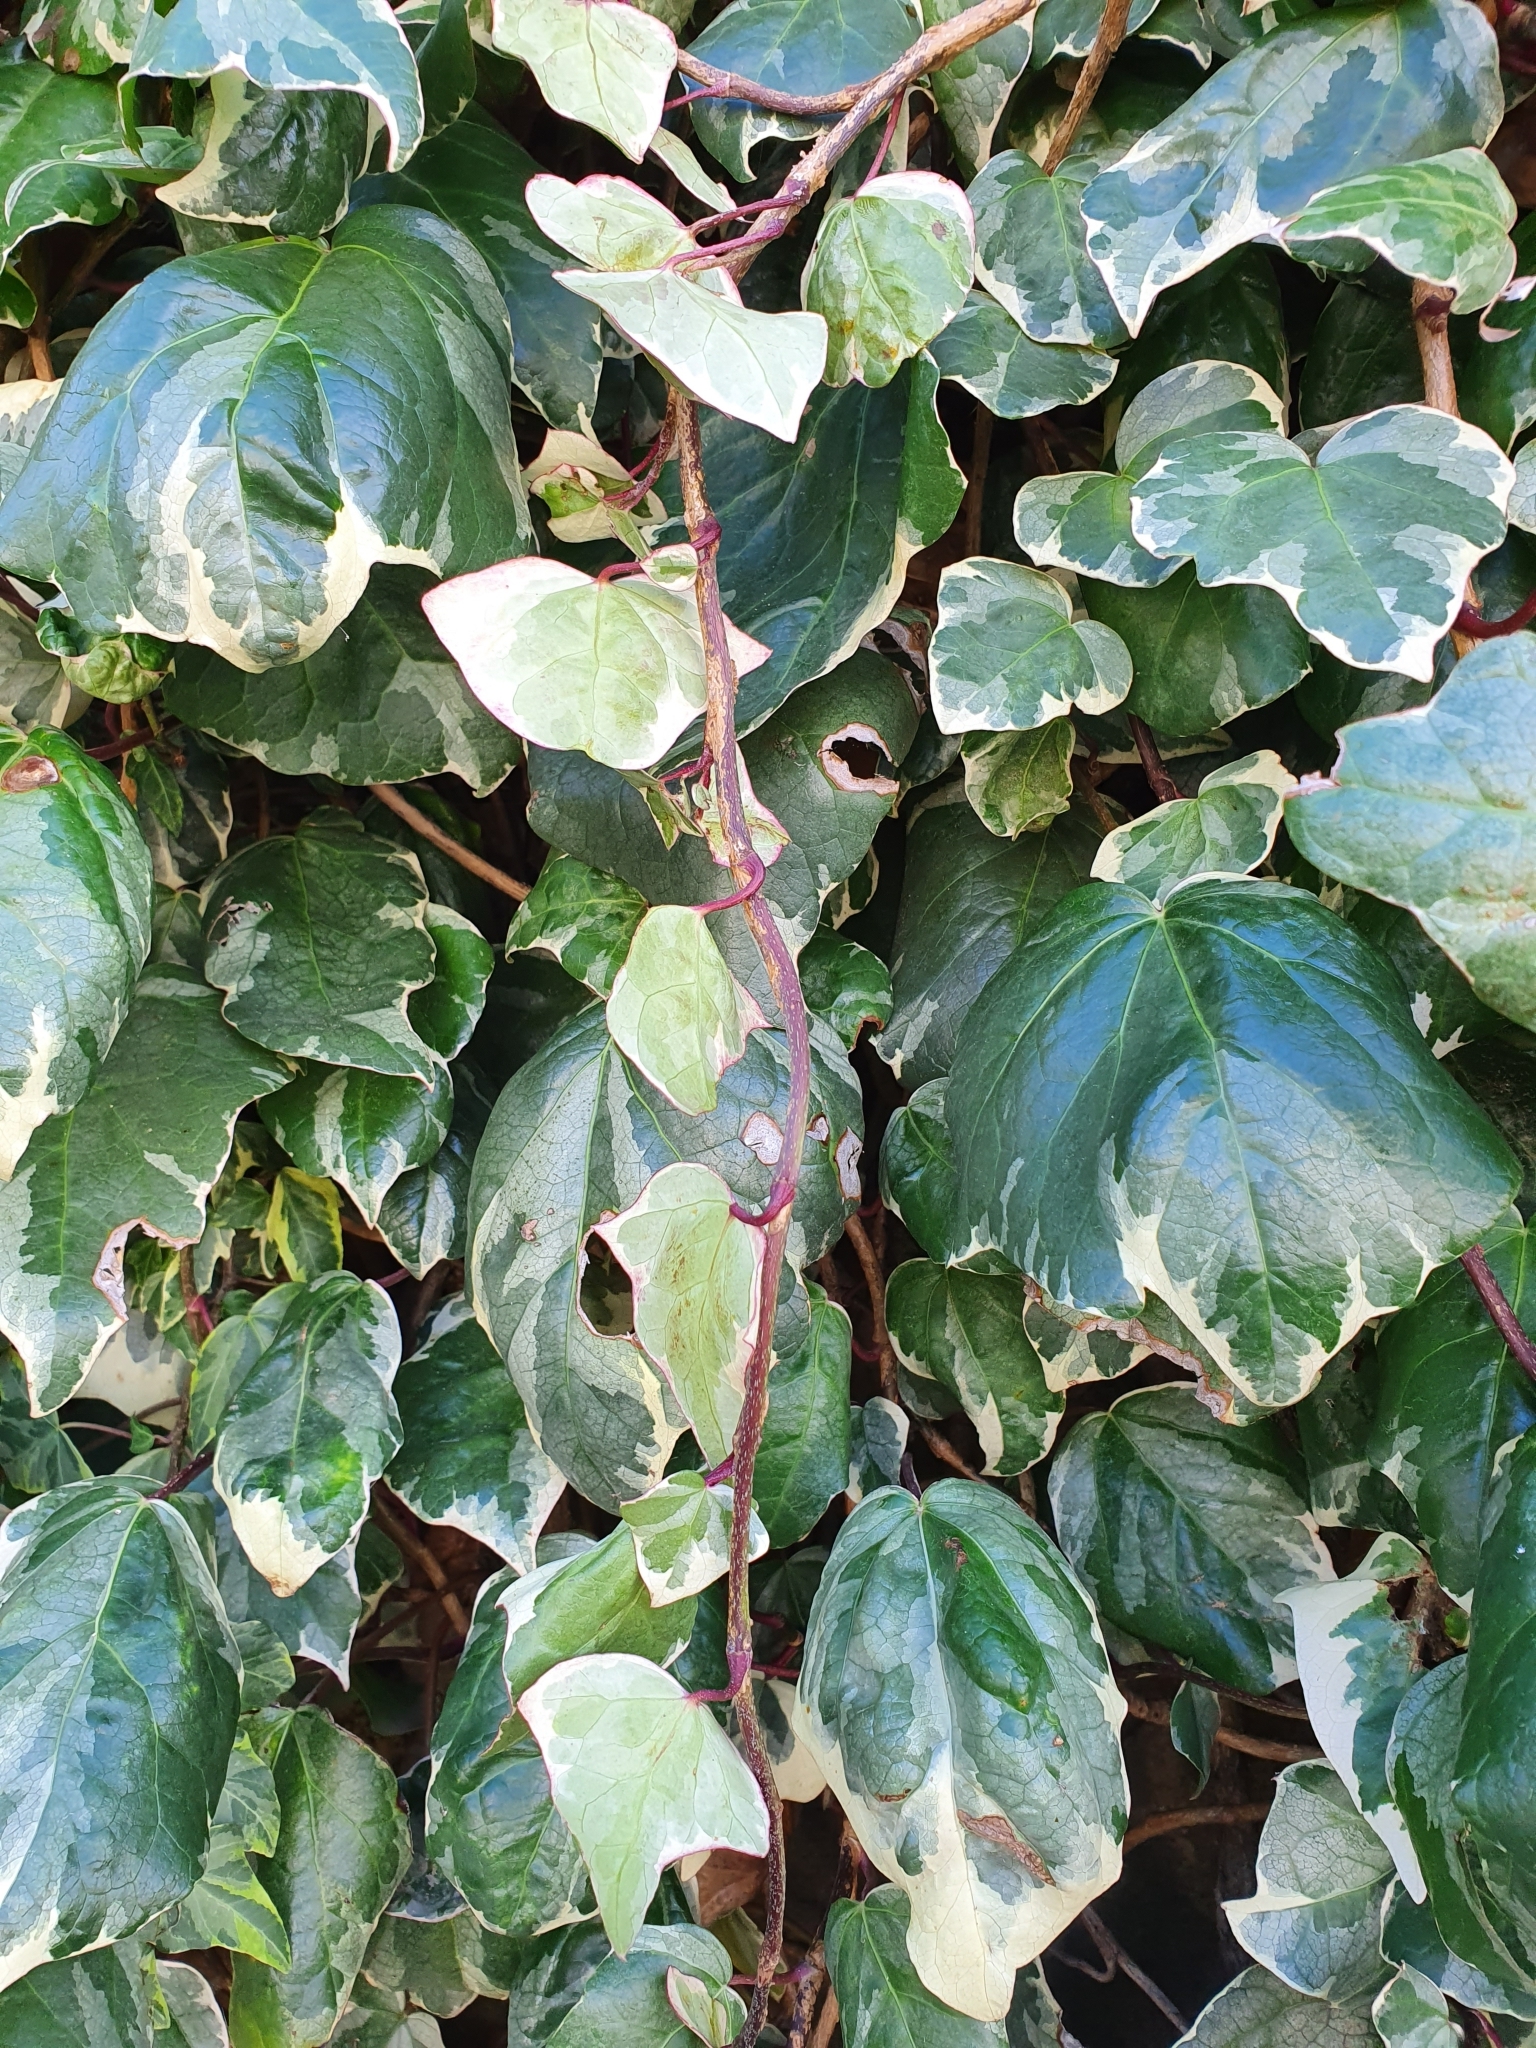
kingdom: Plantae
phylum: Tracheophyta
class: Magnoliopsida
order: Apiales
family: Araliaceae
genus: Hedera
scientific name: Hedera helix
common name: Ivy
